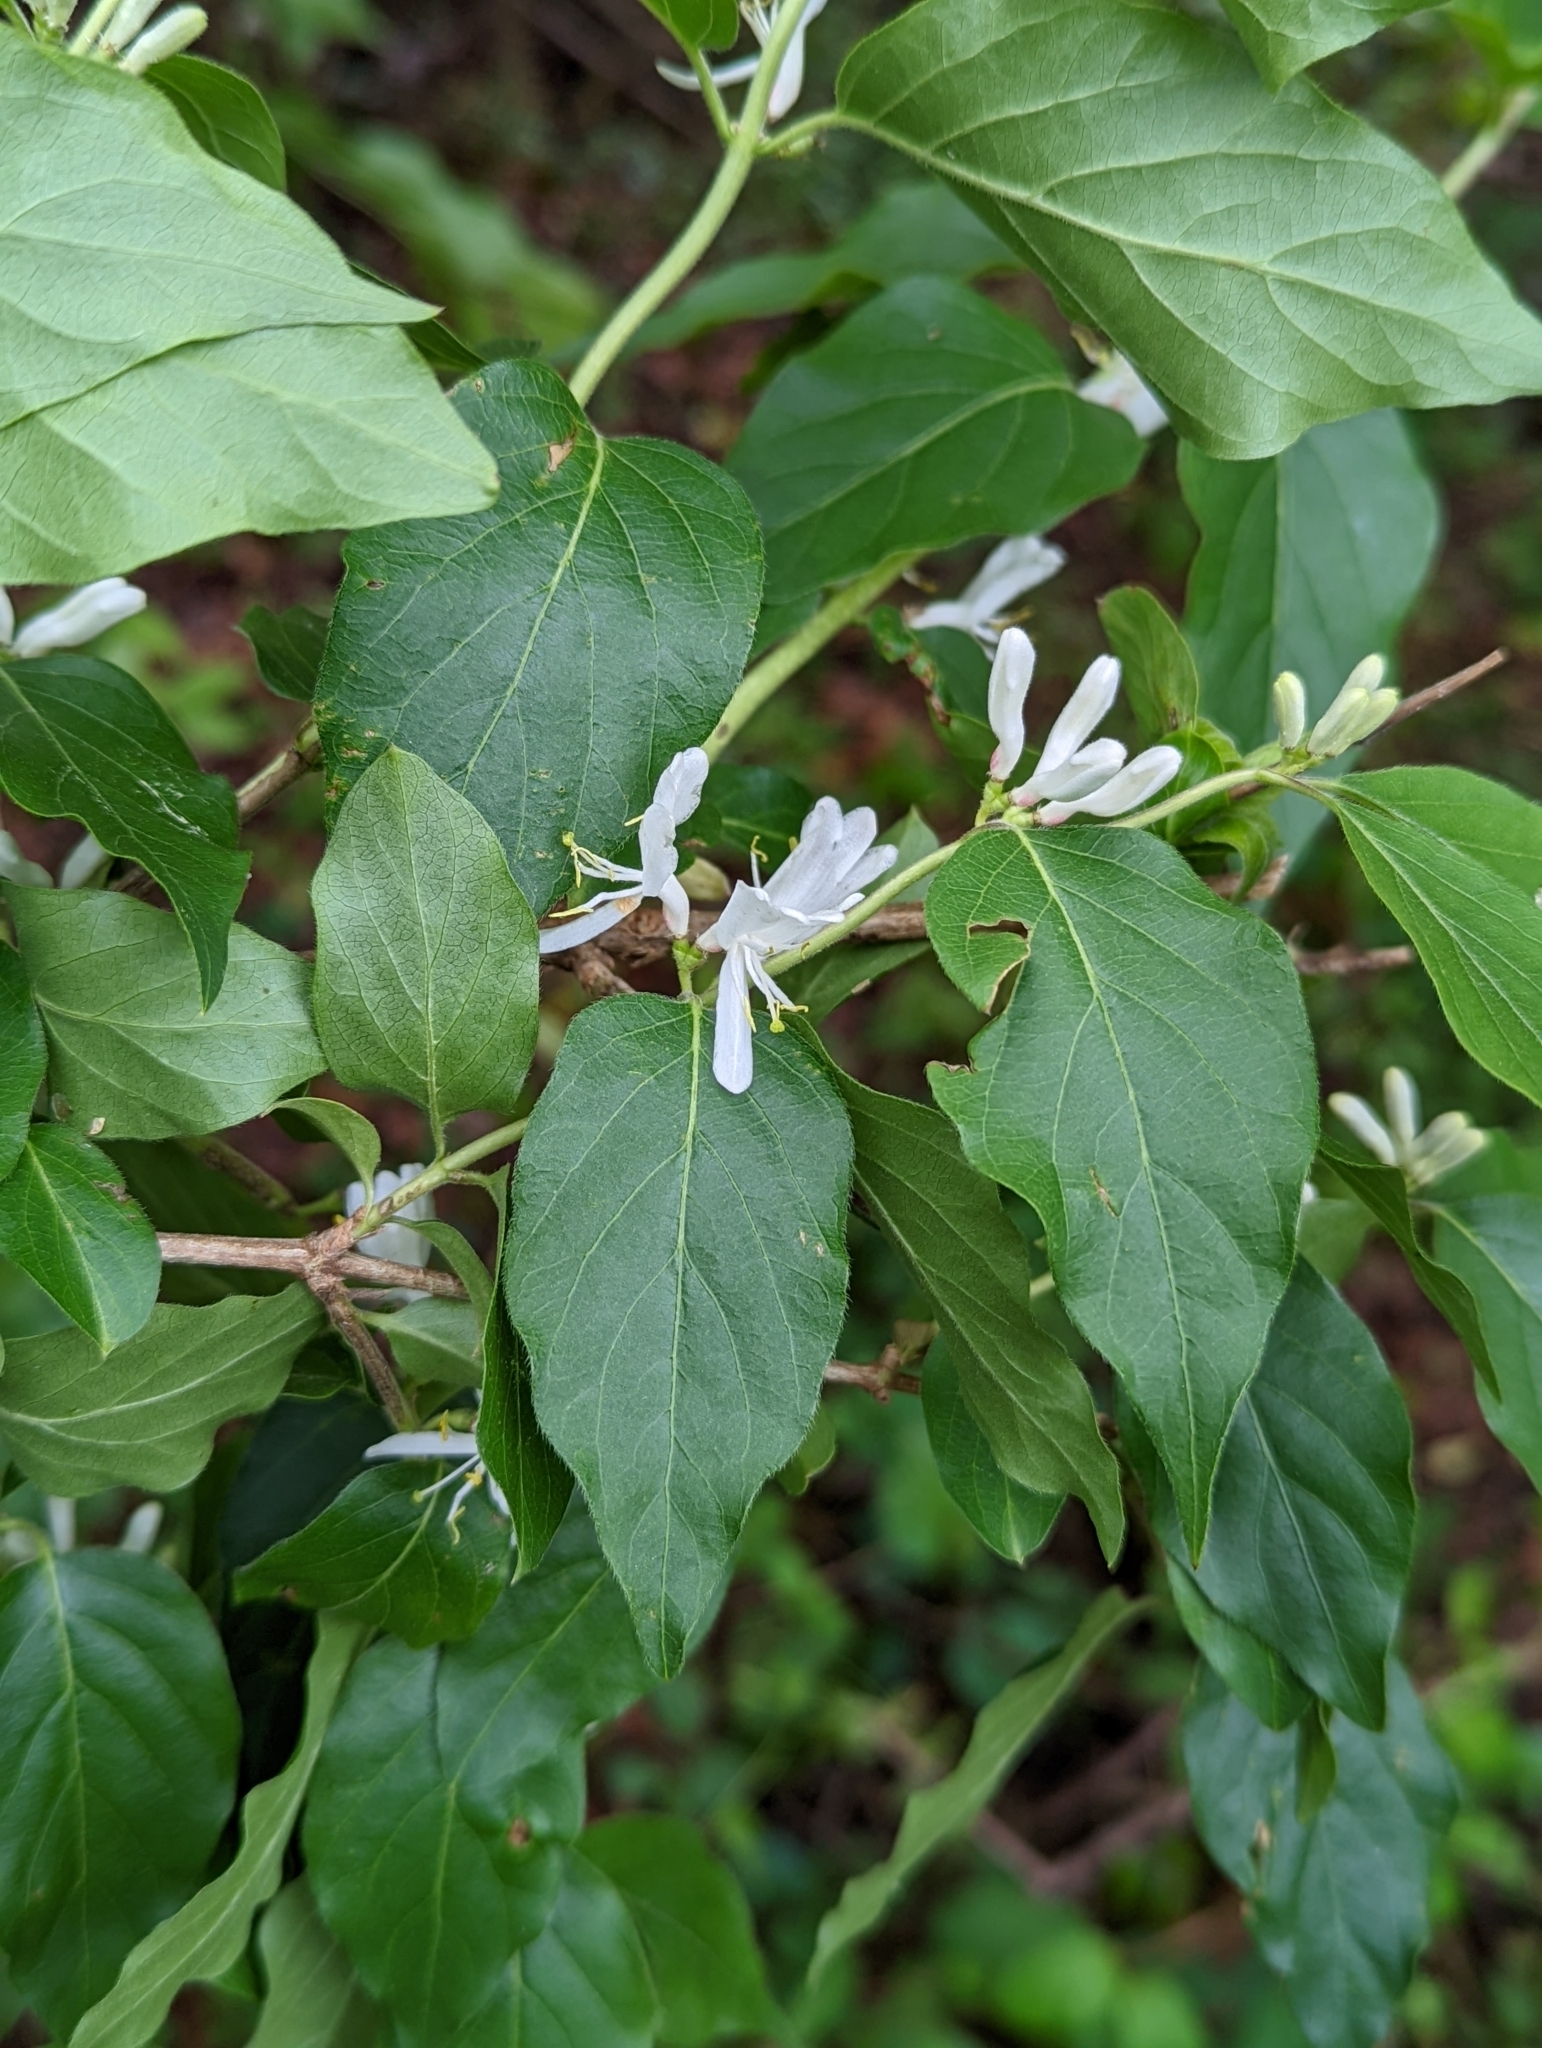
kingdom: Plantae
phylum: Tracheophyta
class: Magnoliopsida
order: Dipsacales
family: Caprifoliaceae
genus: Lonicera
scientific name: Lonicera maackii
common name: Amur honeysuckle
